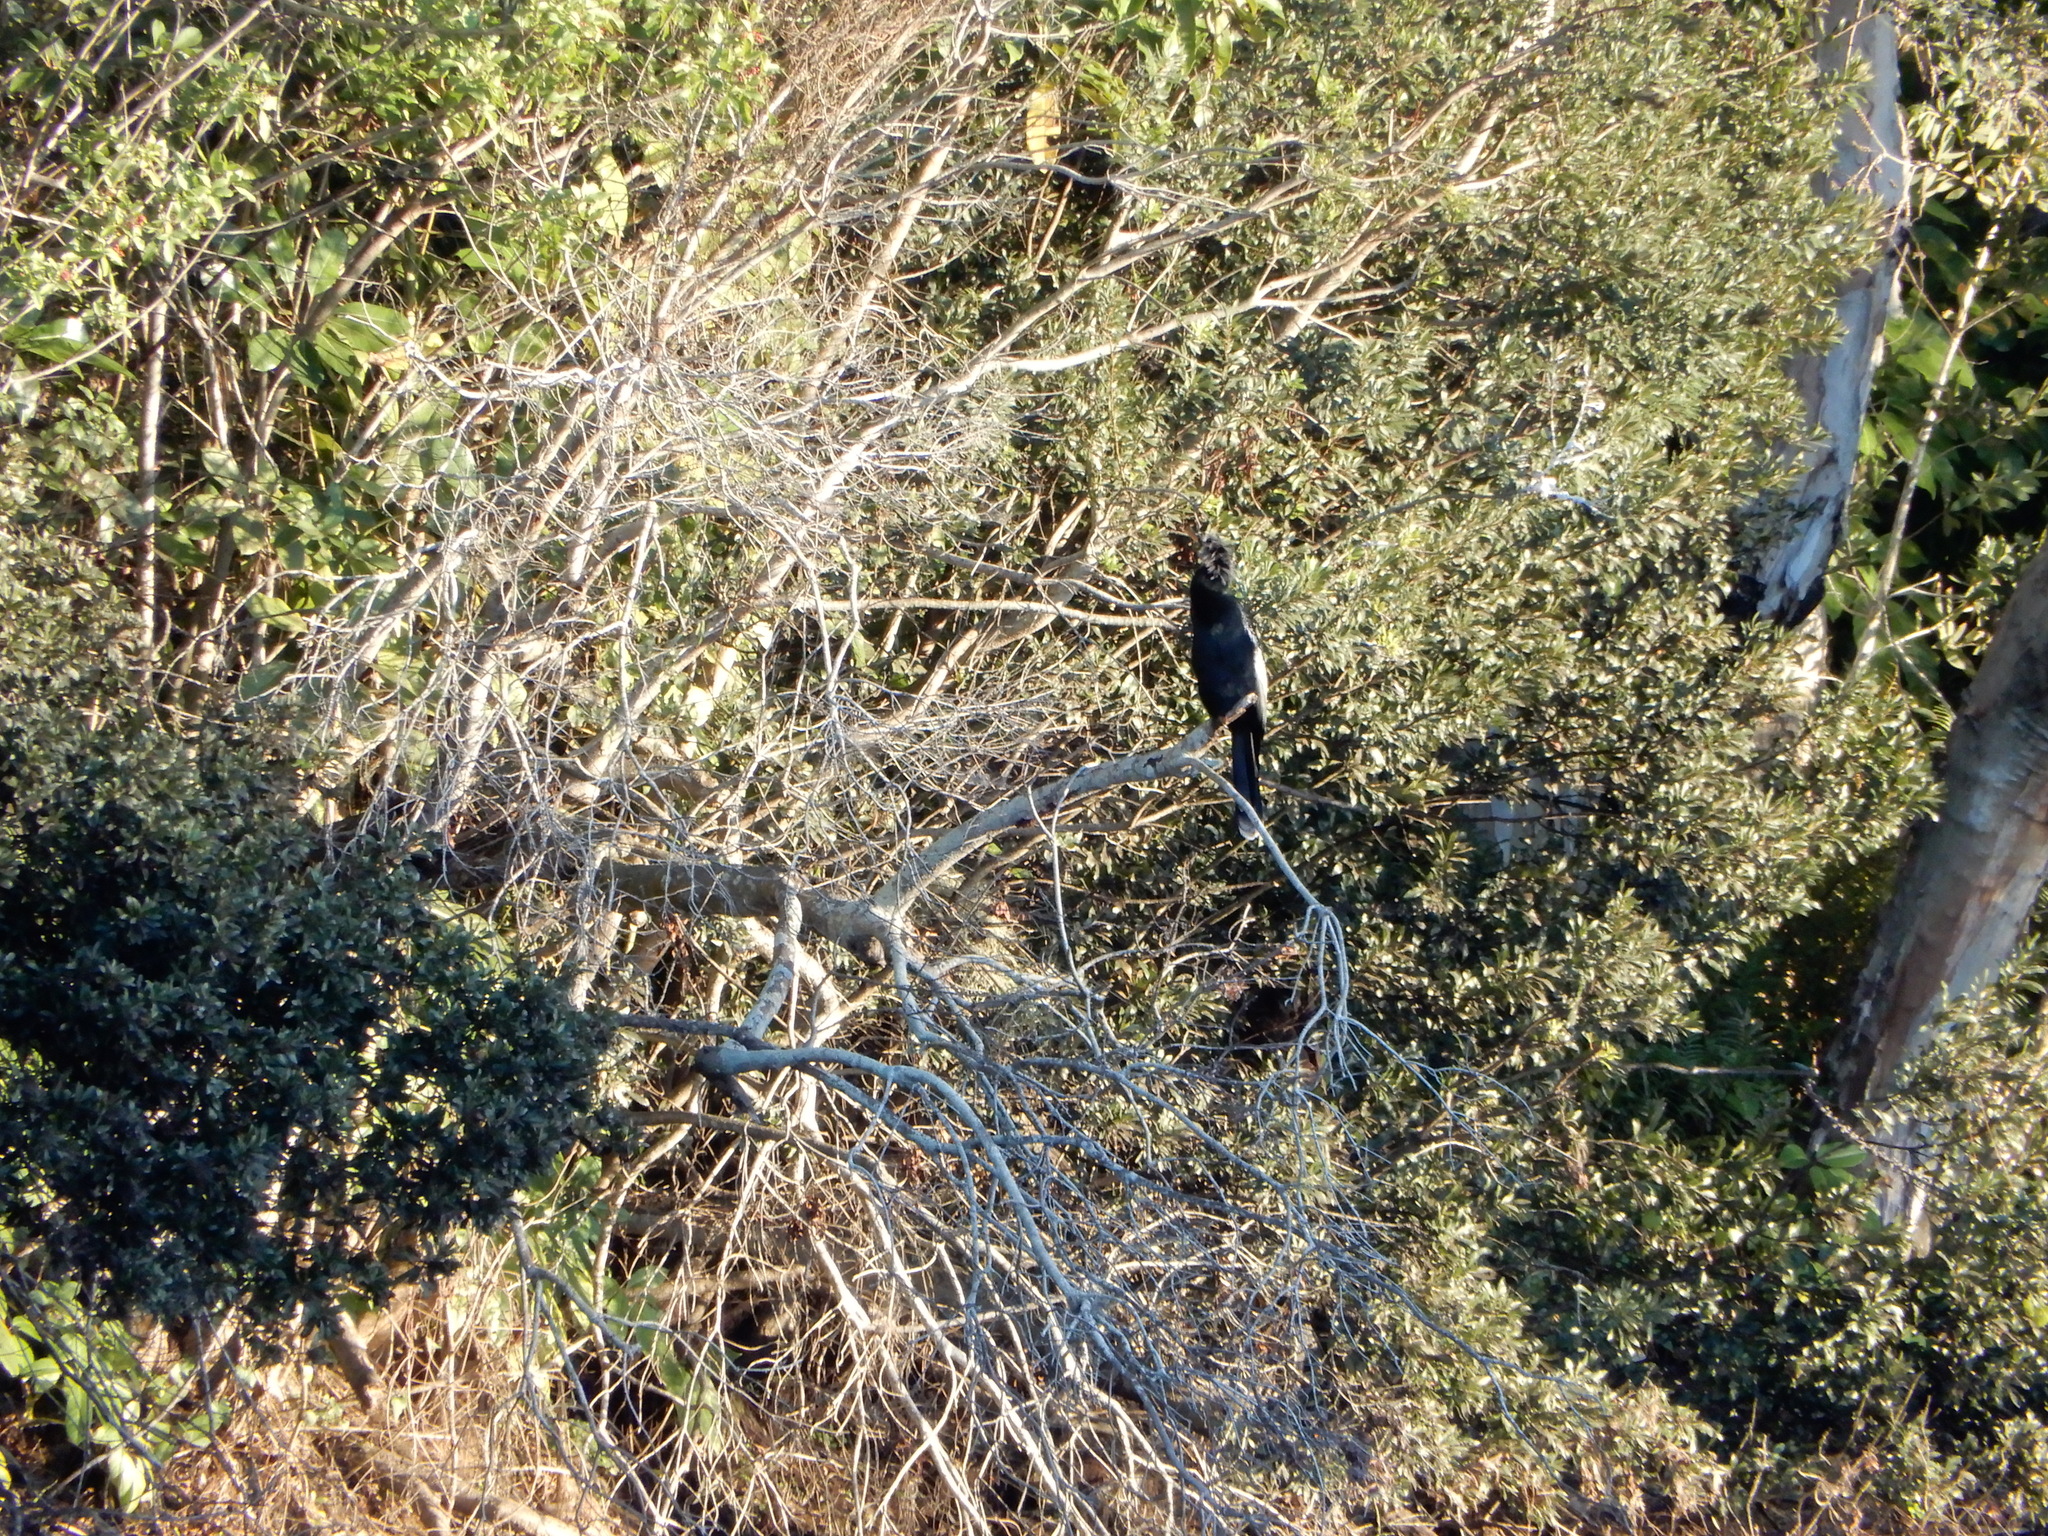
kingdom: Animalia
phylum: Chordata
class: Aves
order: Suliformes
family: Anhingidae
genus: Anhinga
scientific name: Anhinga anhinga
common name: Anhinga
